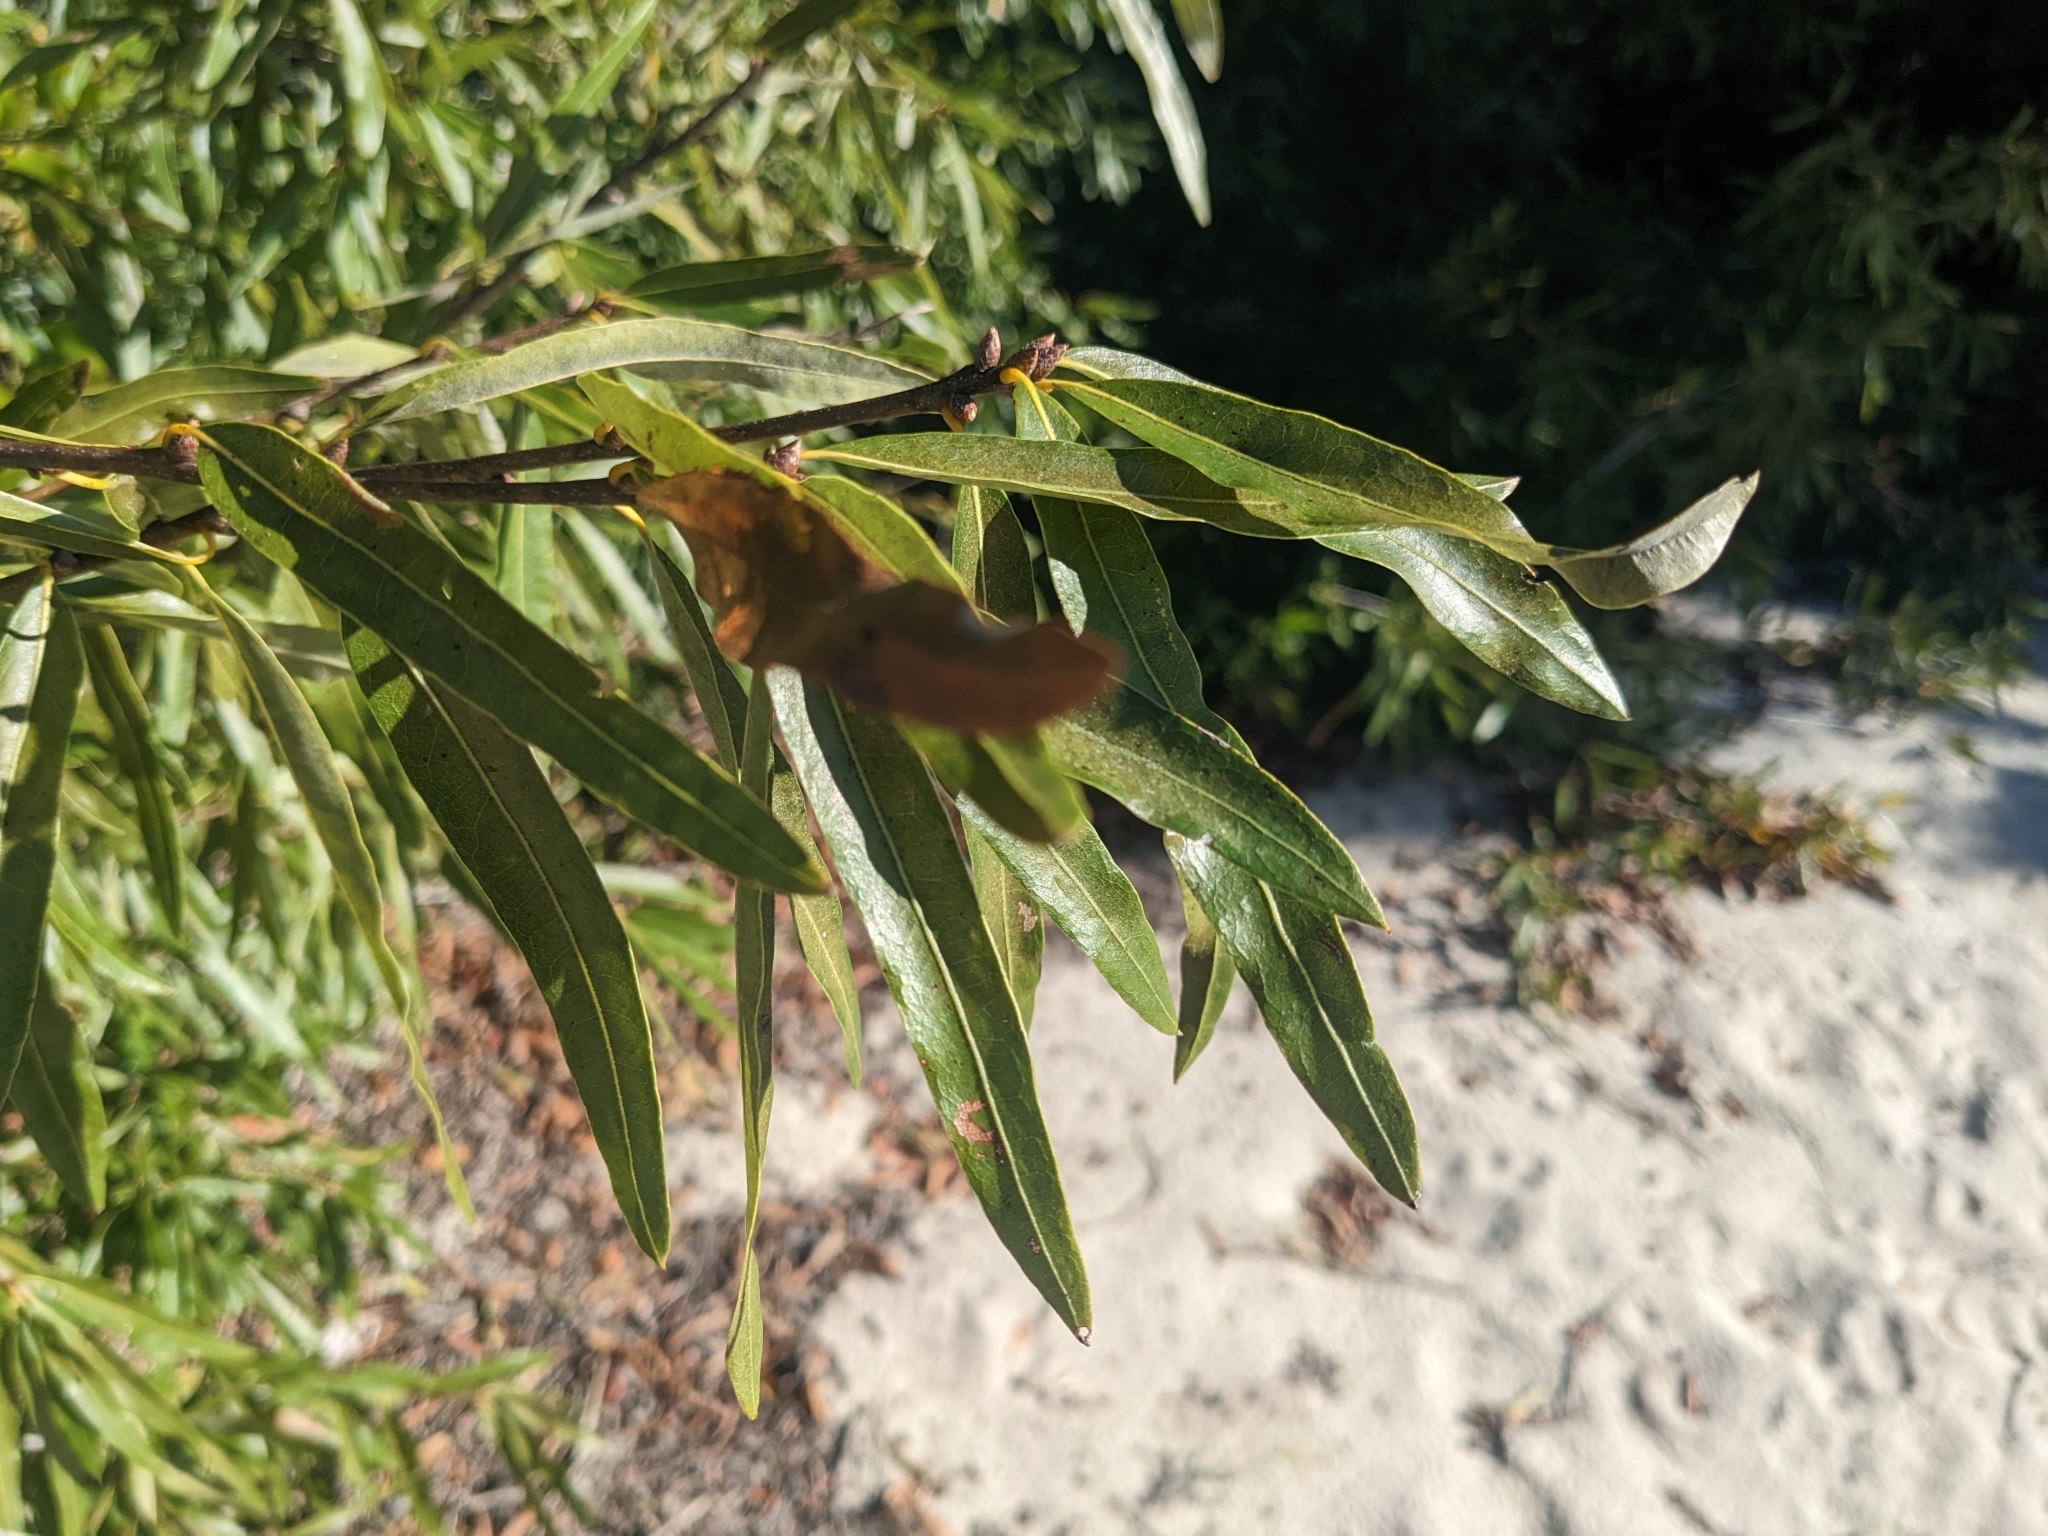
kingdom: Plantae
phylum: Tracheophyta
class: Magnoliopsida
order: Fagales
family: Fagaceae
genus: Quercus
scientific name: Quercus phellos
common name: Willow oak
